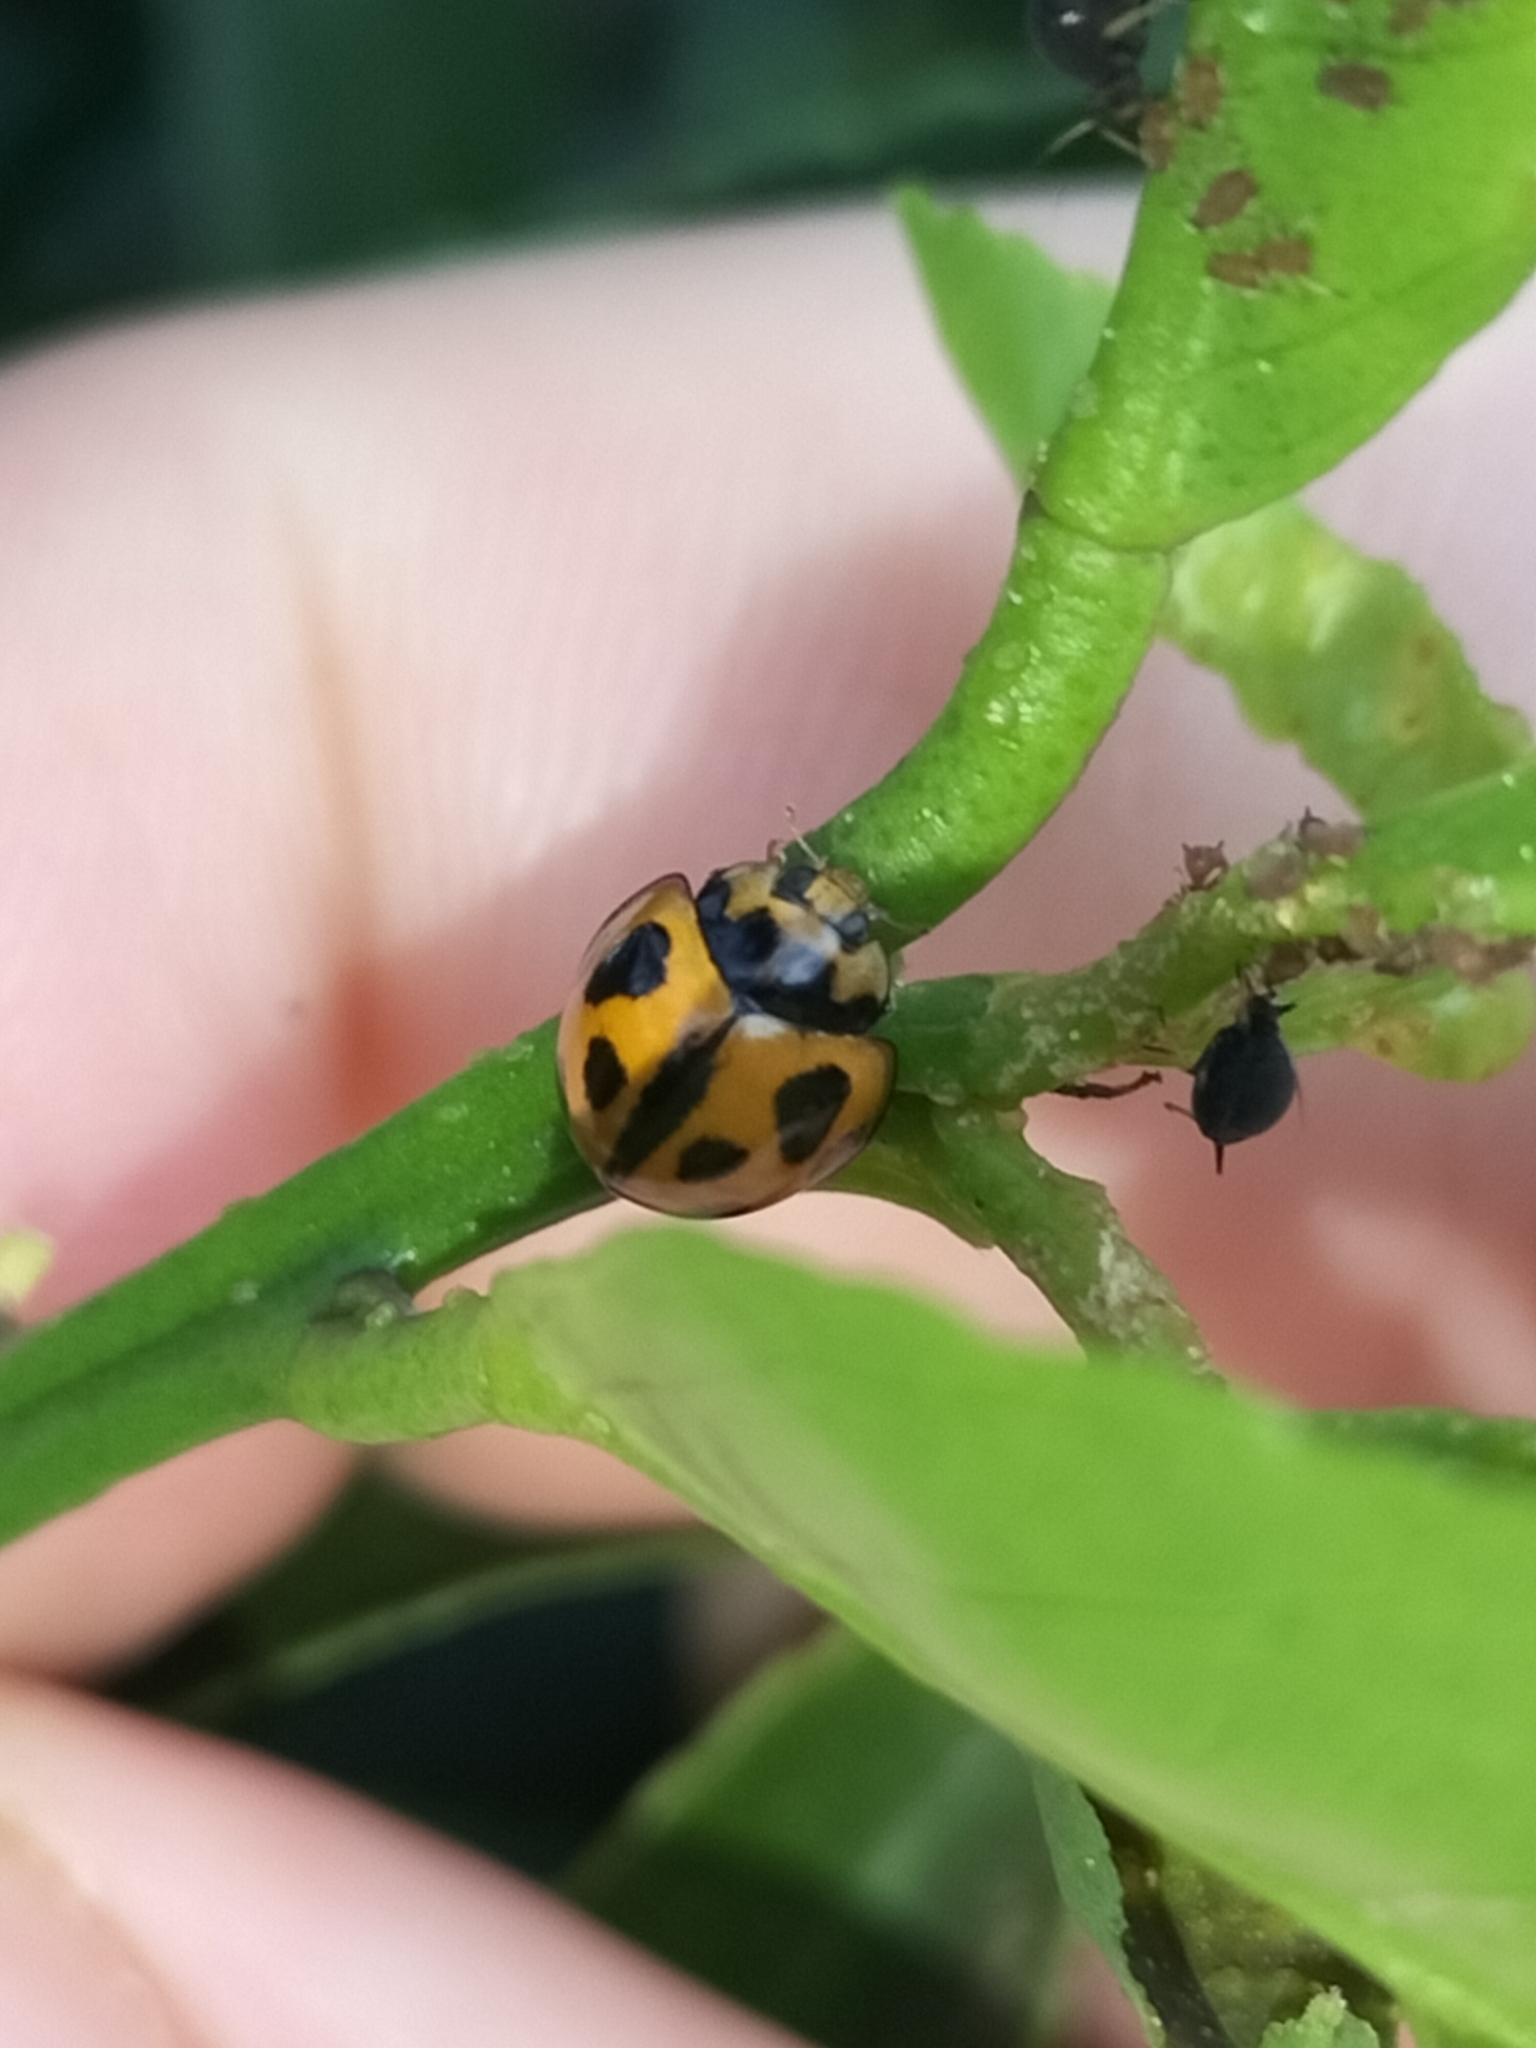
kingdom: Animalia
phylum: Arthropoda
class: Insecta
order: Coleoptera
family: Coccinellidae
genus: Coelophora
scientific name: Coelophora inaequalis
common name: Common australian lady beetle
